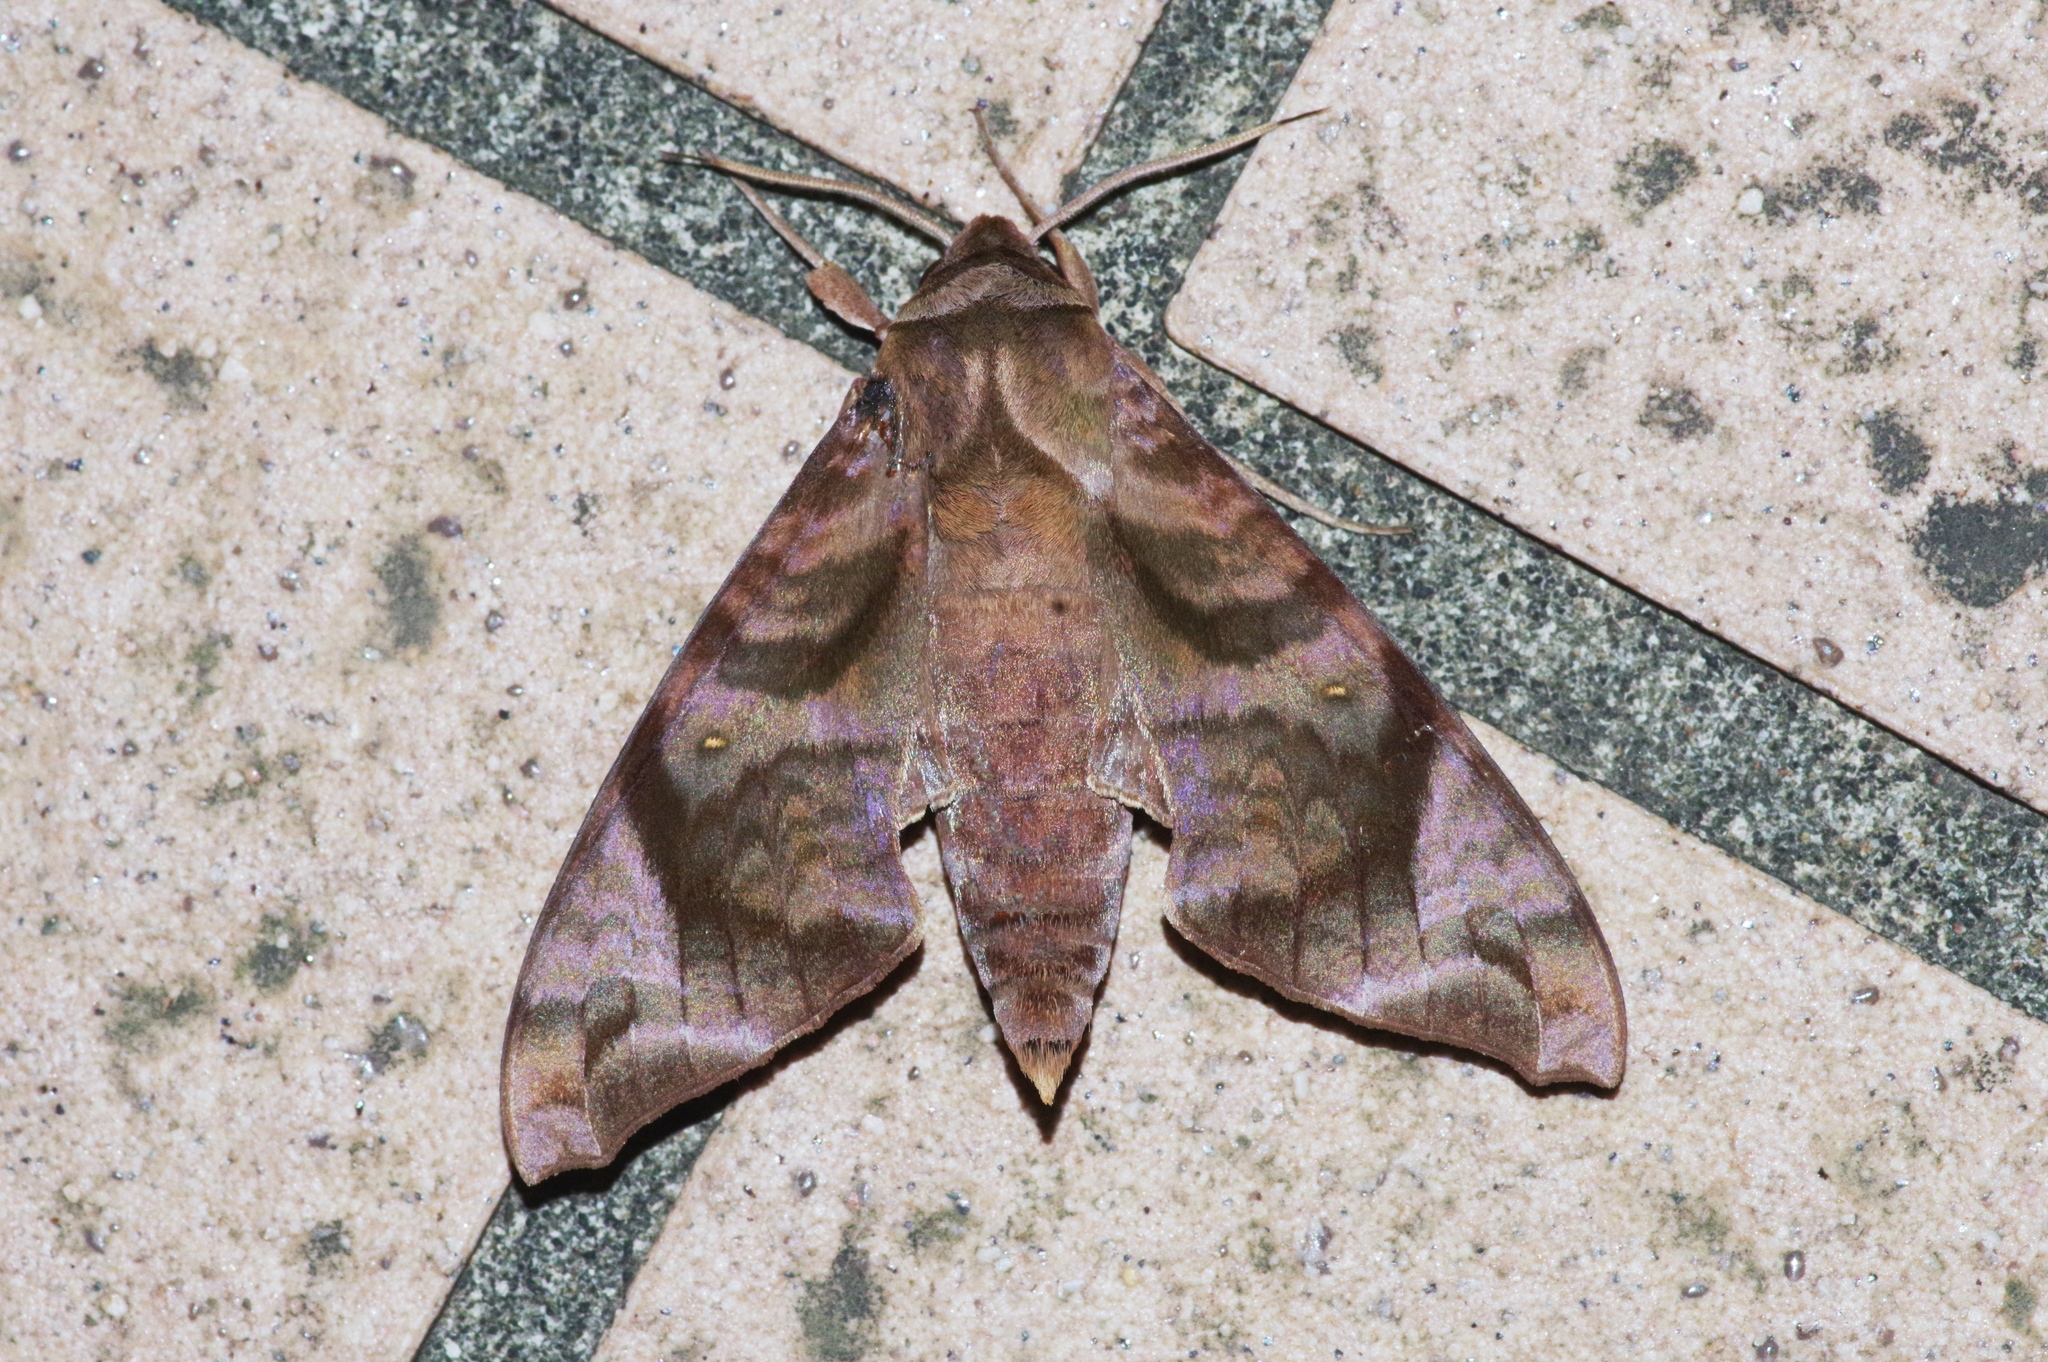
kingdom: Animalia
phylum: Arthropoda
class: Insecta
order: Lepidoptera
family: Sphingidae
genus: Acosmeryx
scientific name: Acosmeryx castanea
